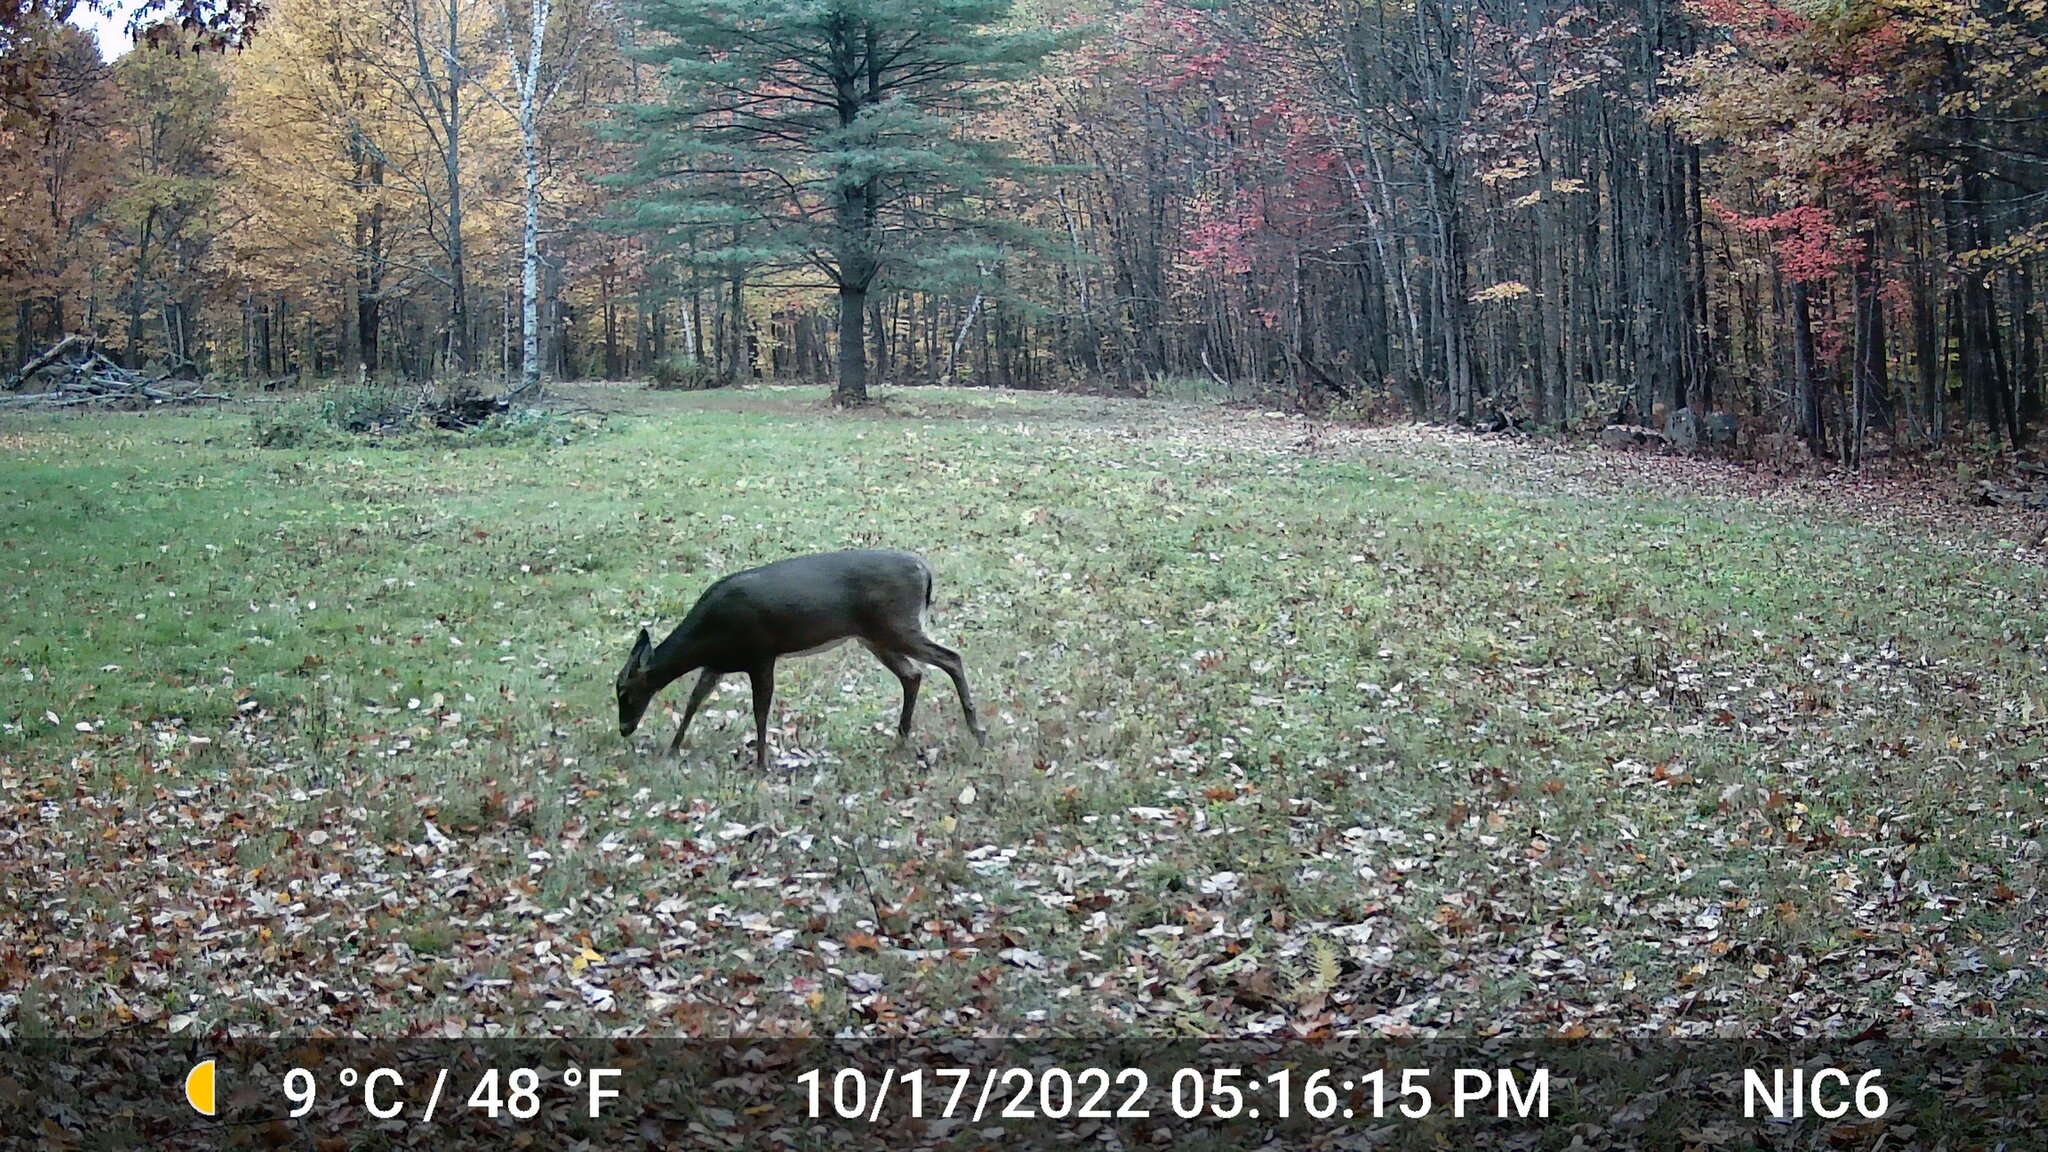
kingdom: Animalia
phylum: Chordata
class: Mammalia
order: Artiodactyla
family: Cervidae
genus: Odocoileus
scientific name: Odocoileus virginianus
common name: White-tailed deer
